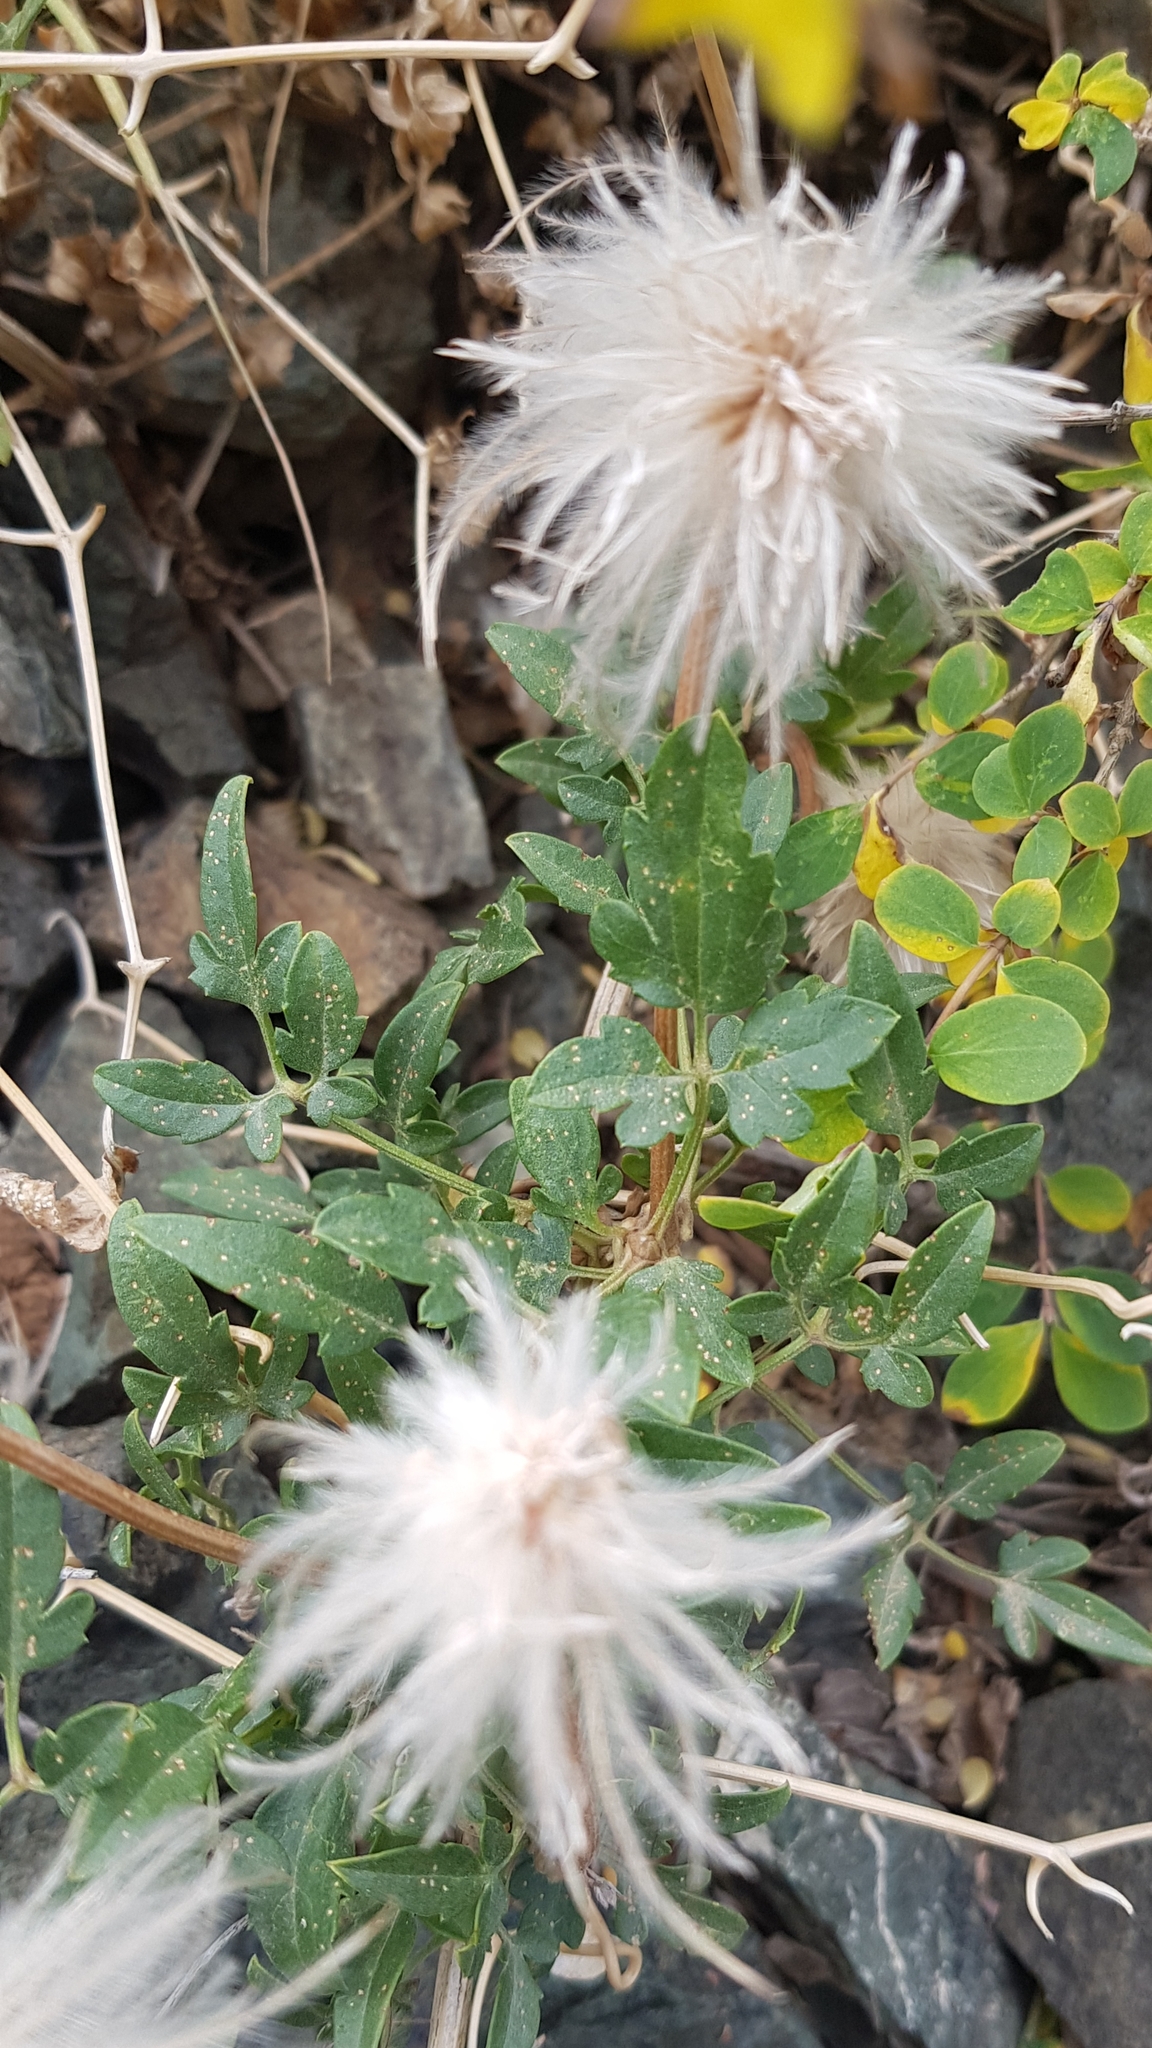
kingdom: Plantae
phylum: Tracheophyta
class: Magnoliopsida
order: Ranunculales
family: Ranunculaceae
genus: Clematis
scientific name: Clematis tangutica
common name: Orange-peel clematis
